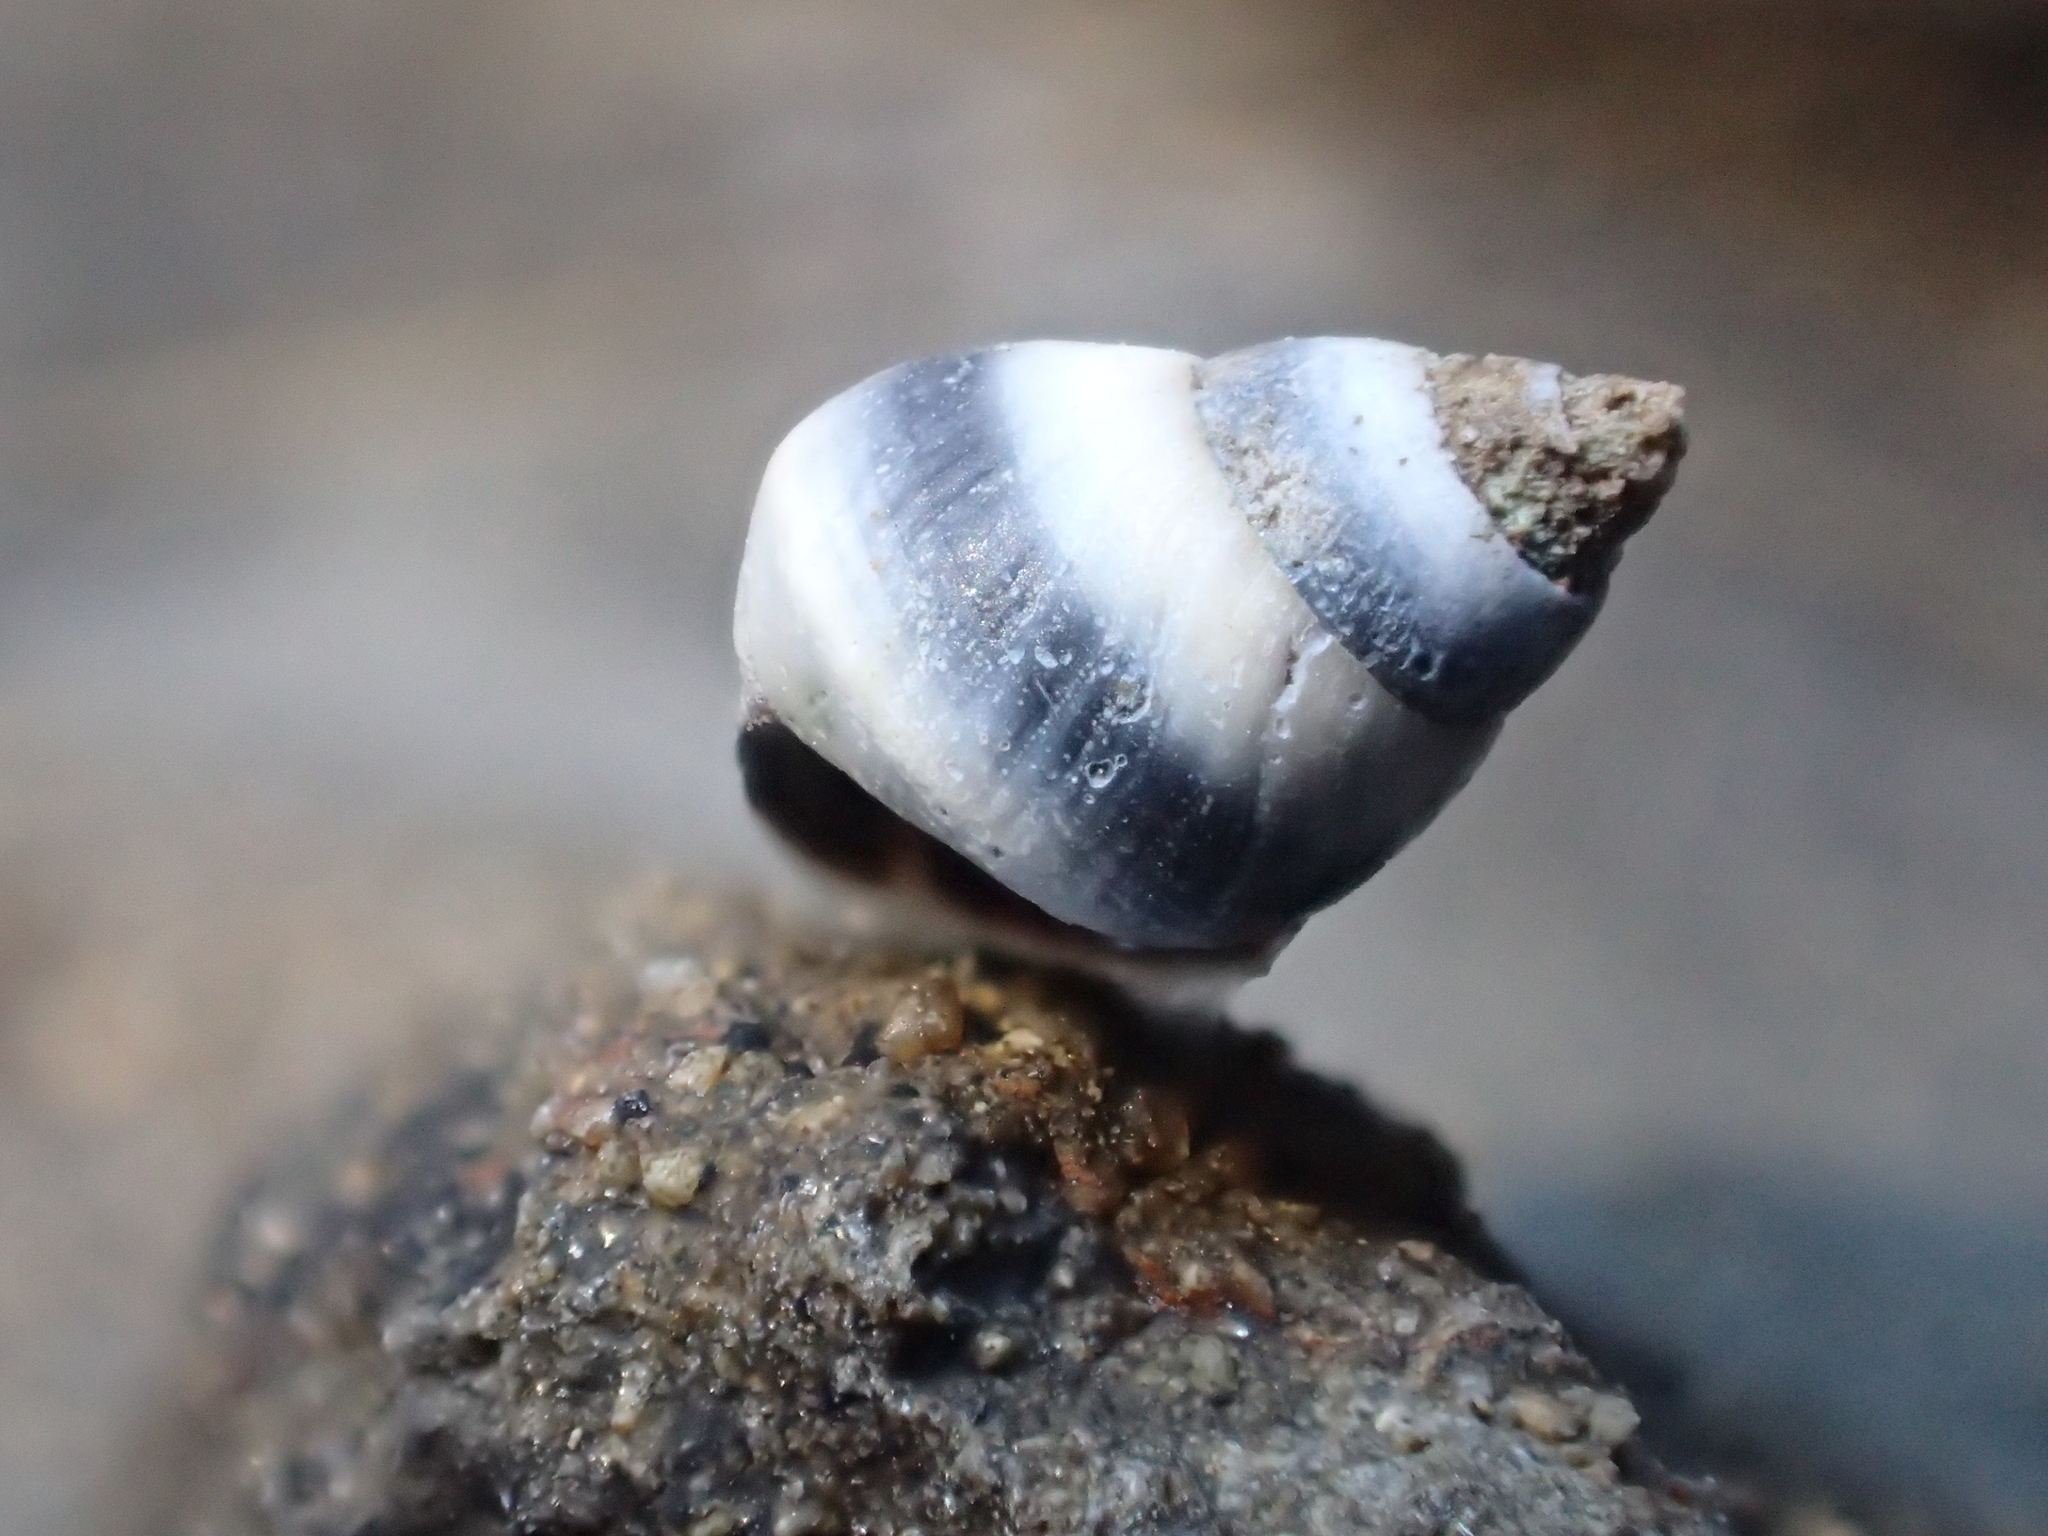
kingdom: Animalia
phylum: Mollusca
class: Gastropoda
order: Littorinimorpha
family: Littorinidae
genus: Austrolittorina
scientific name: Austrolittorina antipodum
